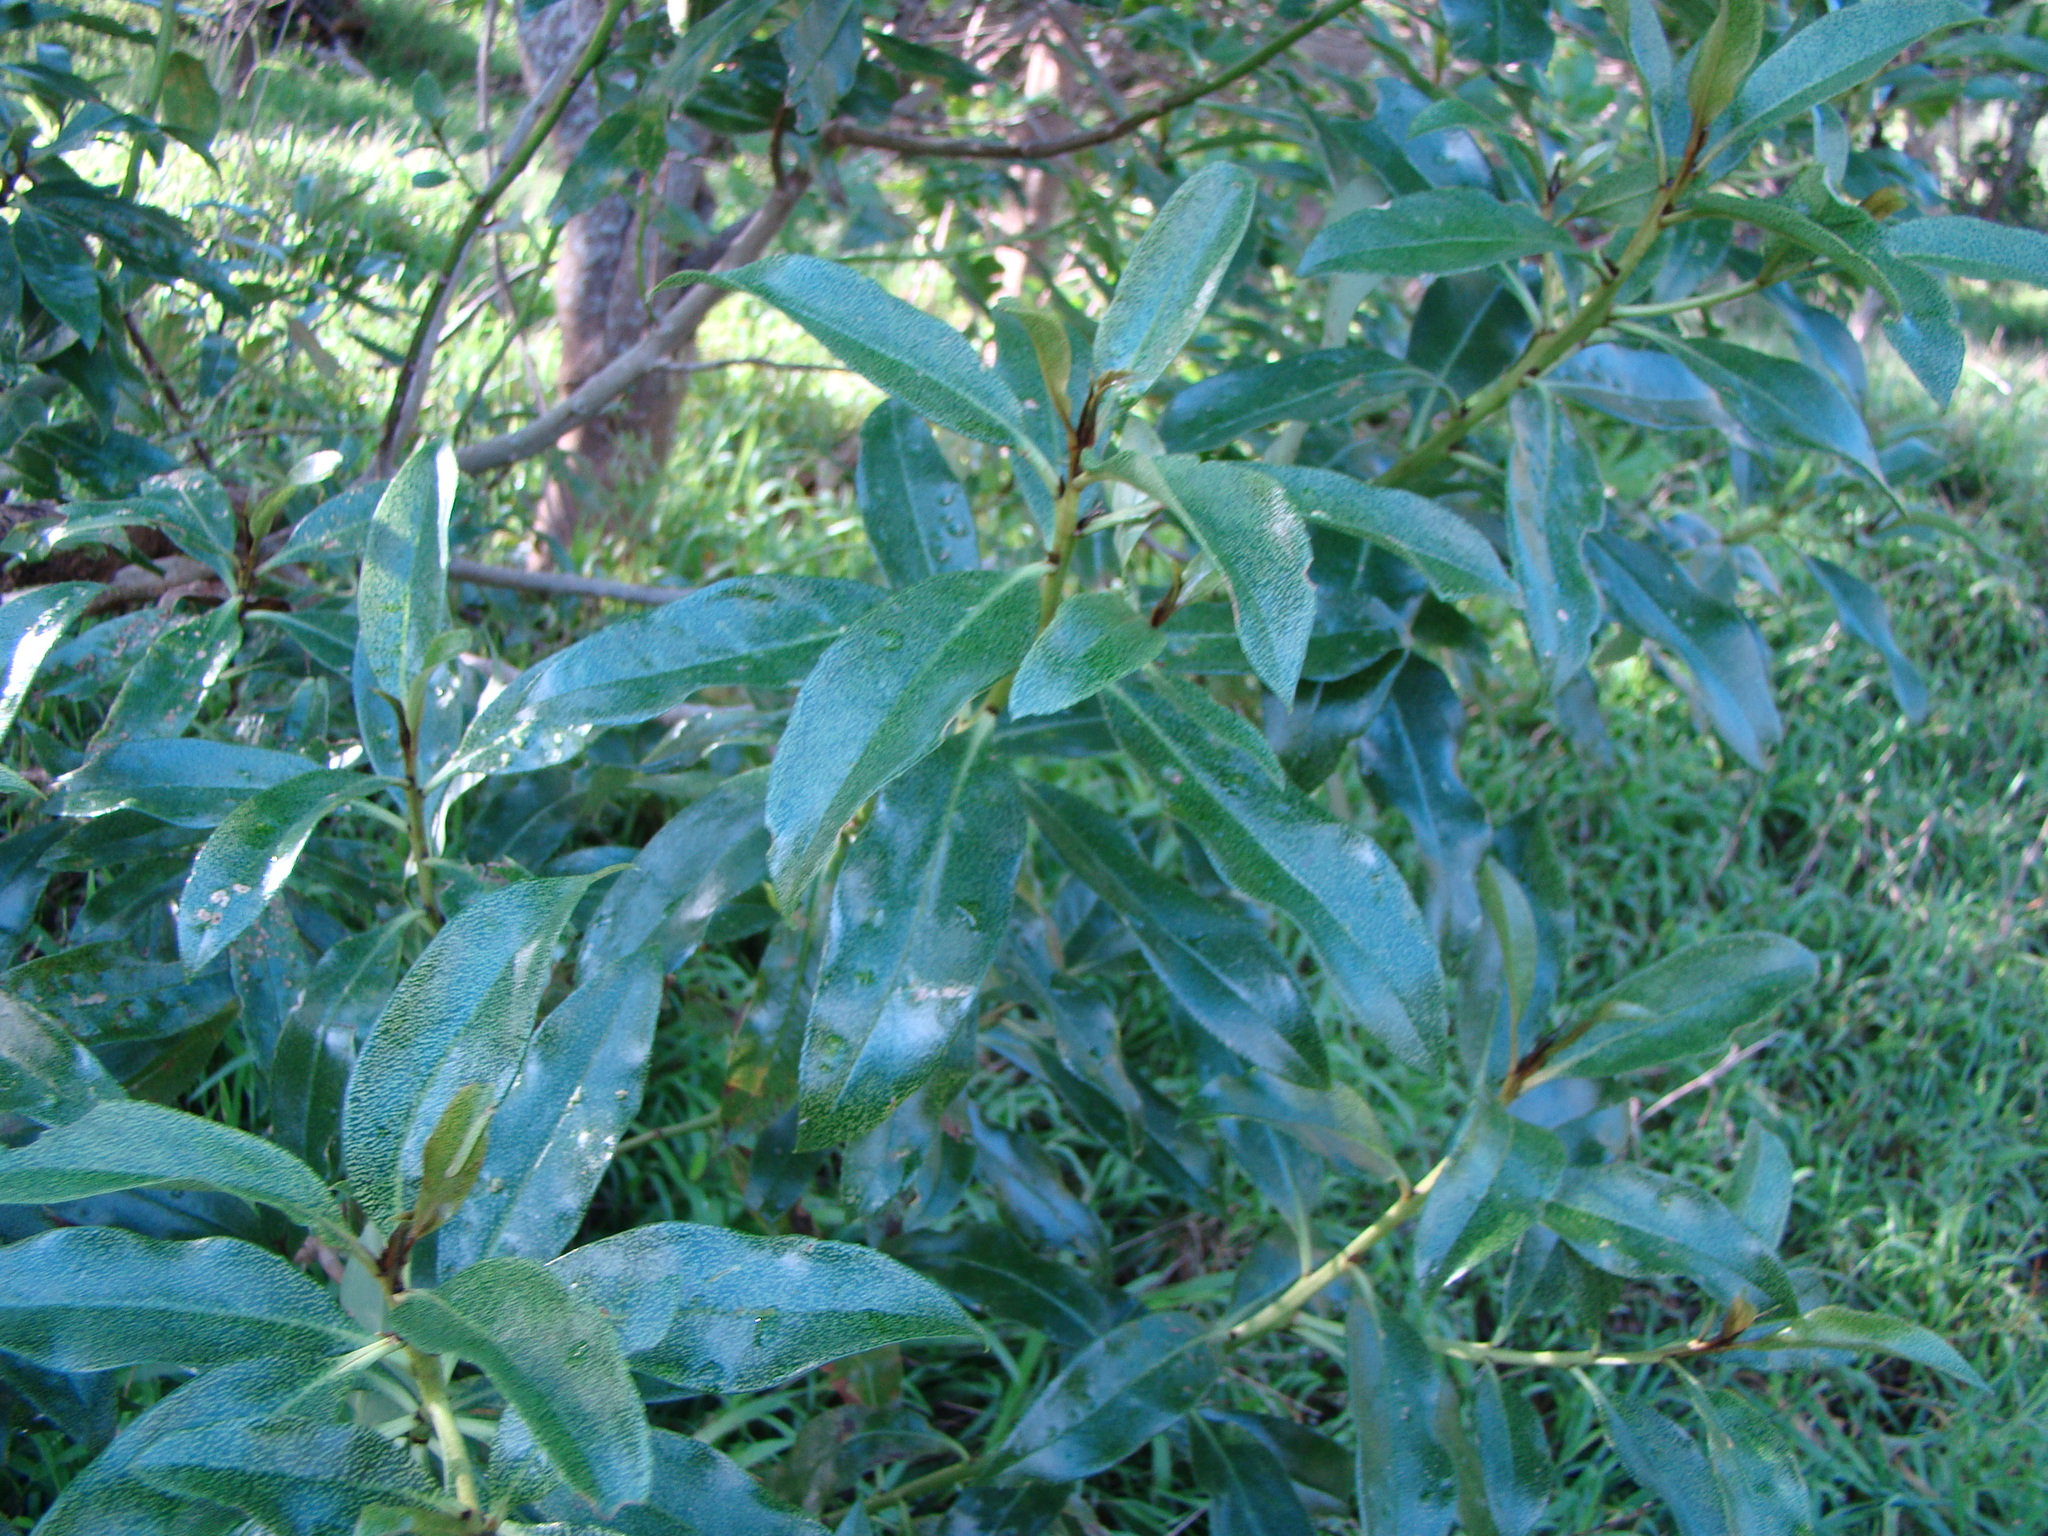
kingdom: Plantae
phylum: Tracheophyta
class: Magnoliopsida
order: Lamiales
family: Scrophulariaceae
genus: Myoporum
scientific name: Myoporum laetum
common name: Ngaio tree
